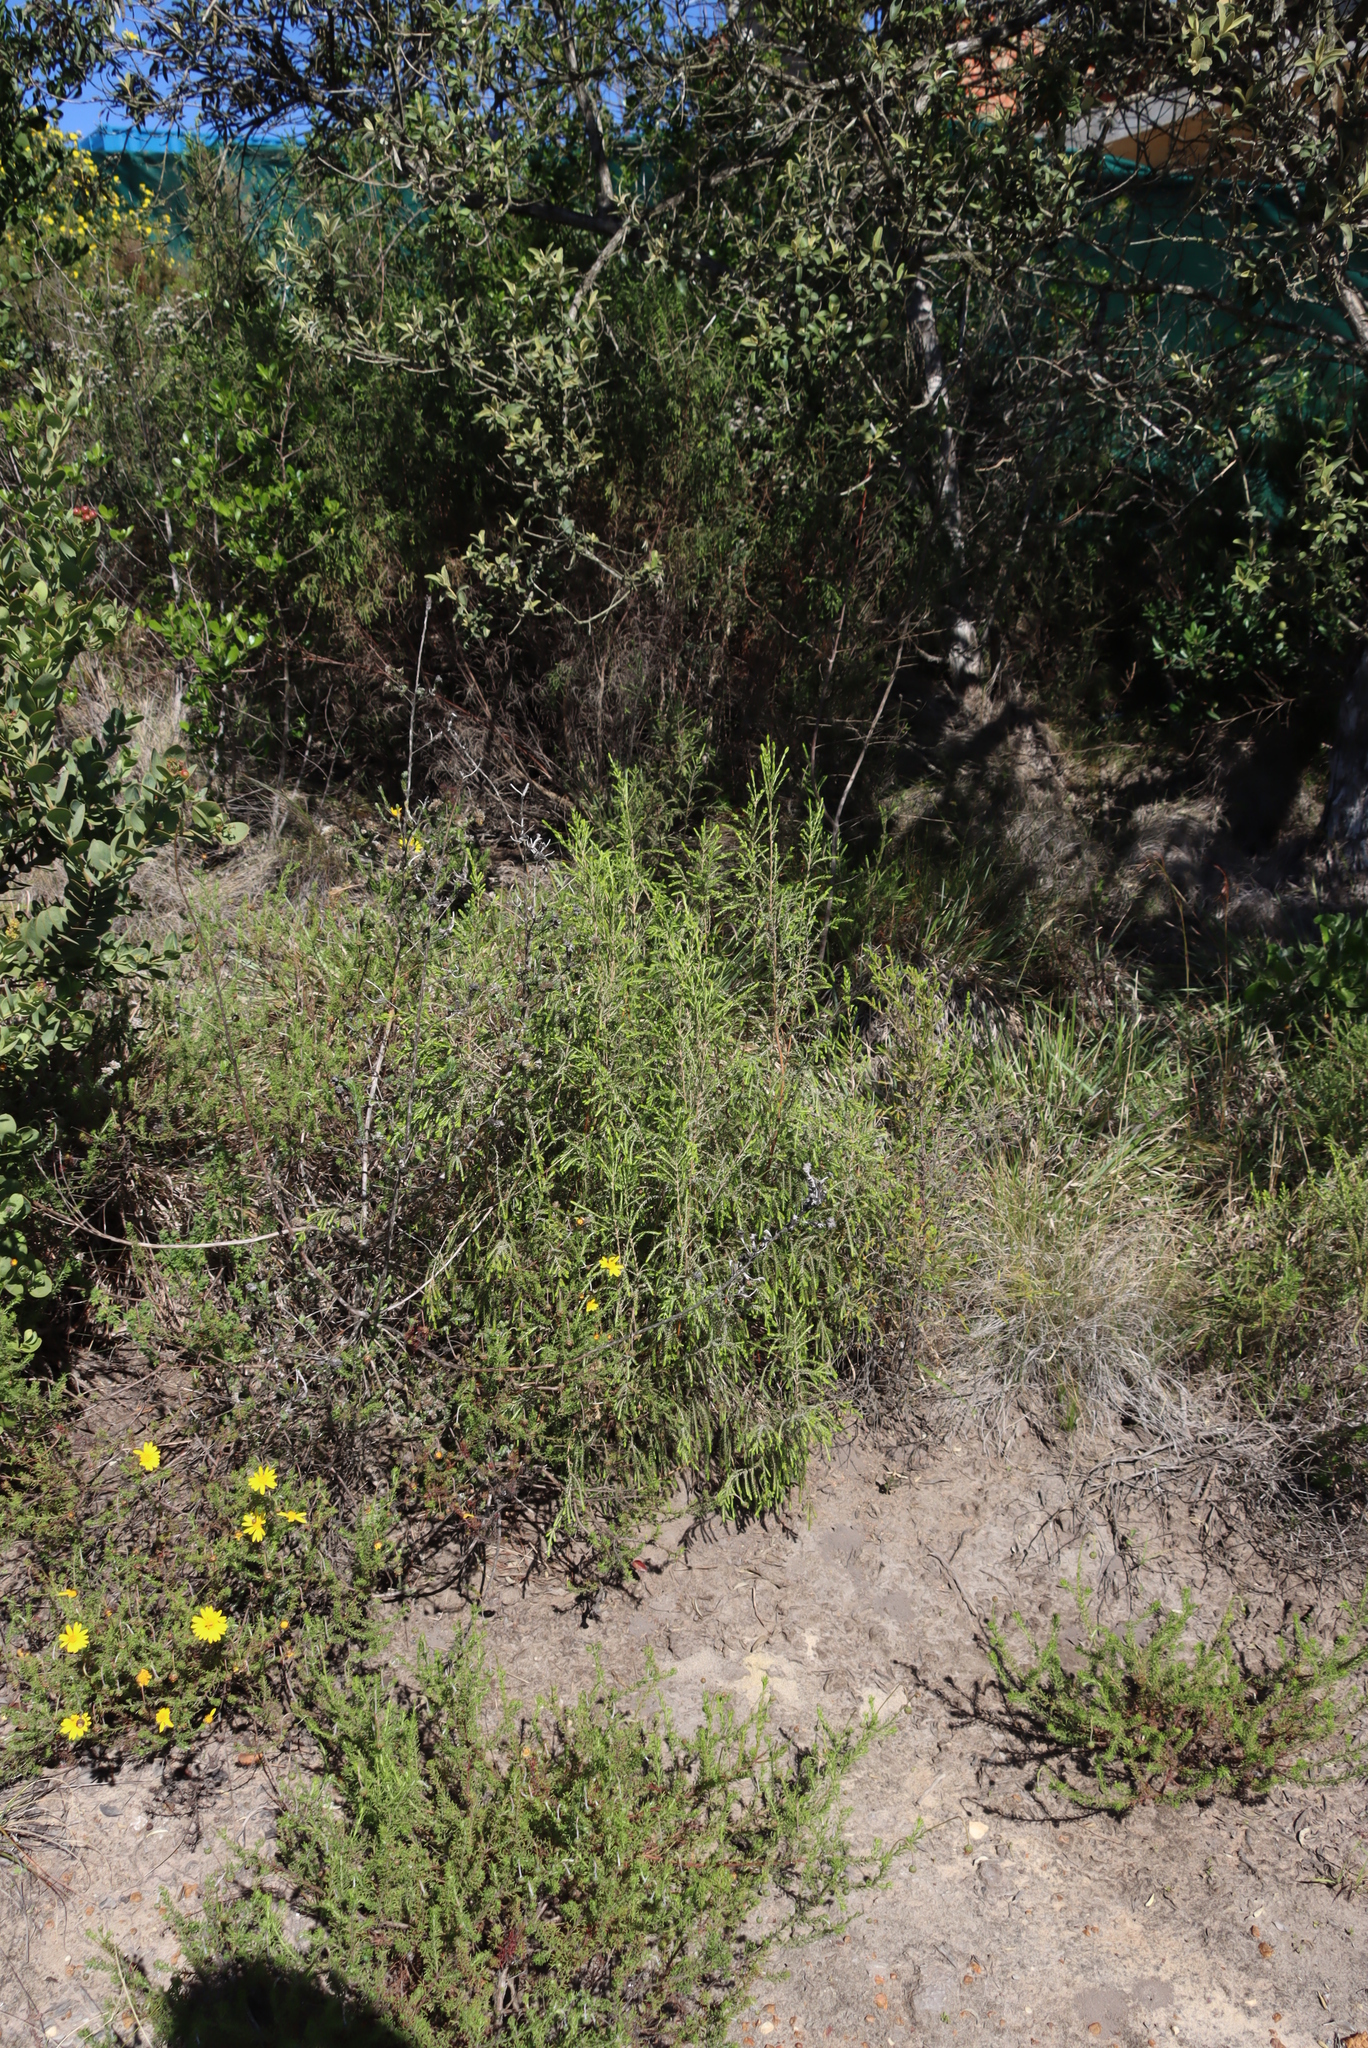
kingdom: Plantae
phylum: Tracheophyta
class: Magnoliopsida
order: Asterales
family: Asteraceae
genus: Ursinia
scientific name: Ursinia trifida
